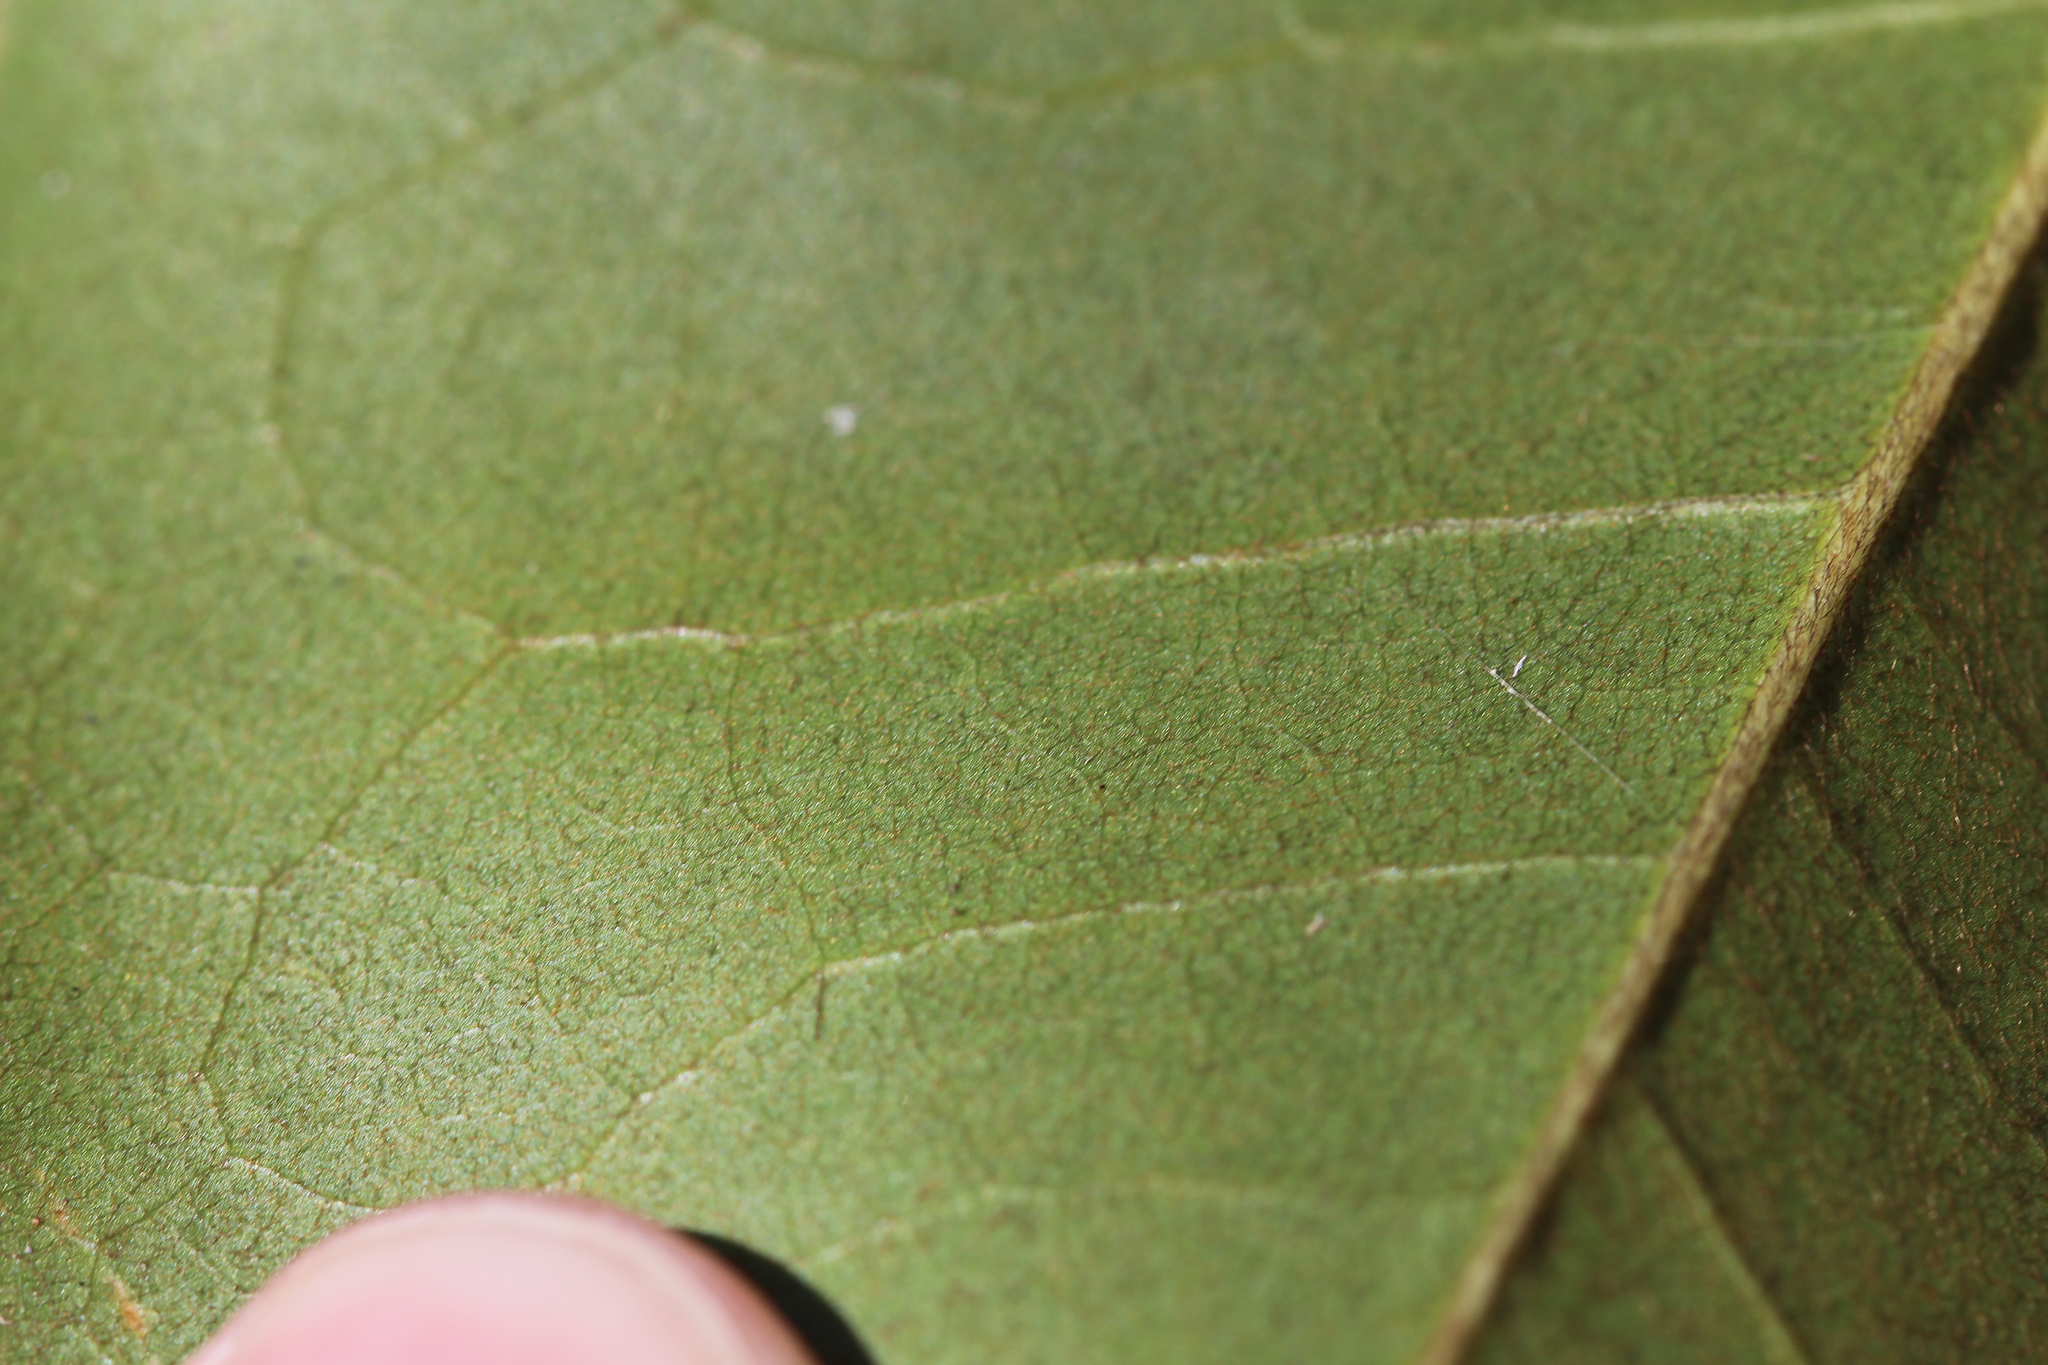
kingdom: Plantae
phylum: Tracheophyta
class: Magnoliopsida
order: Magnoliales
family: Magnoliaceae
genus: Magnolia
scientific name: Magnolia virginiana
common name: Swamp bay
